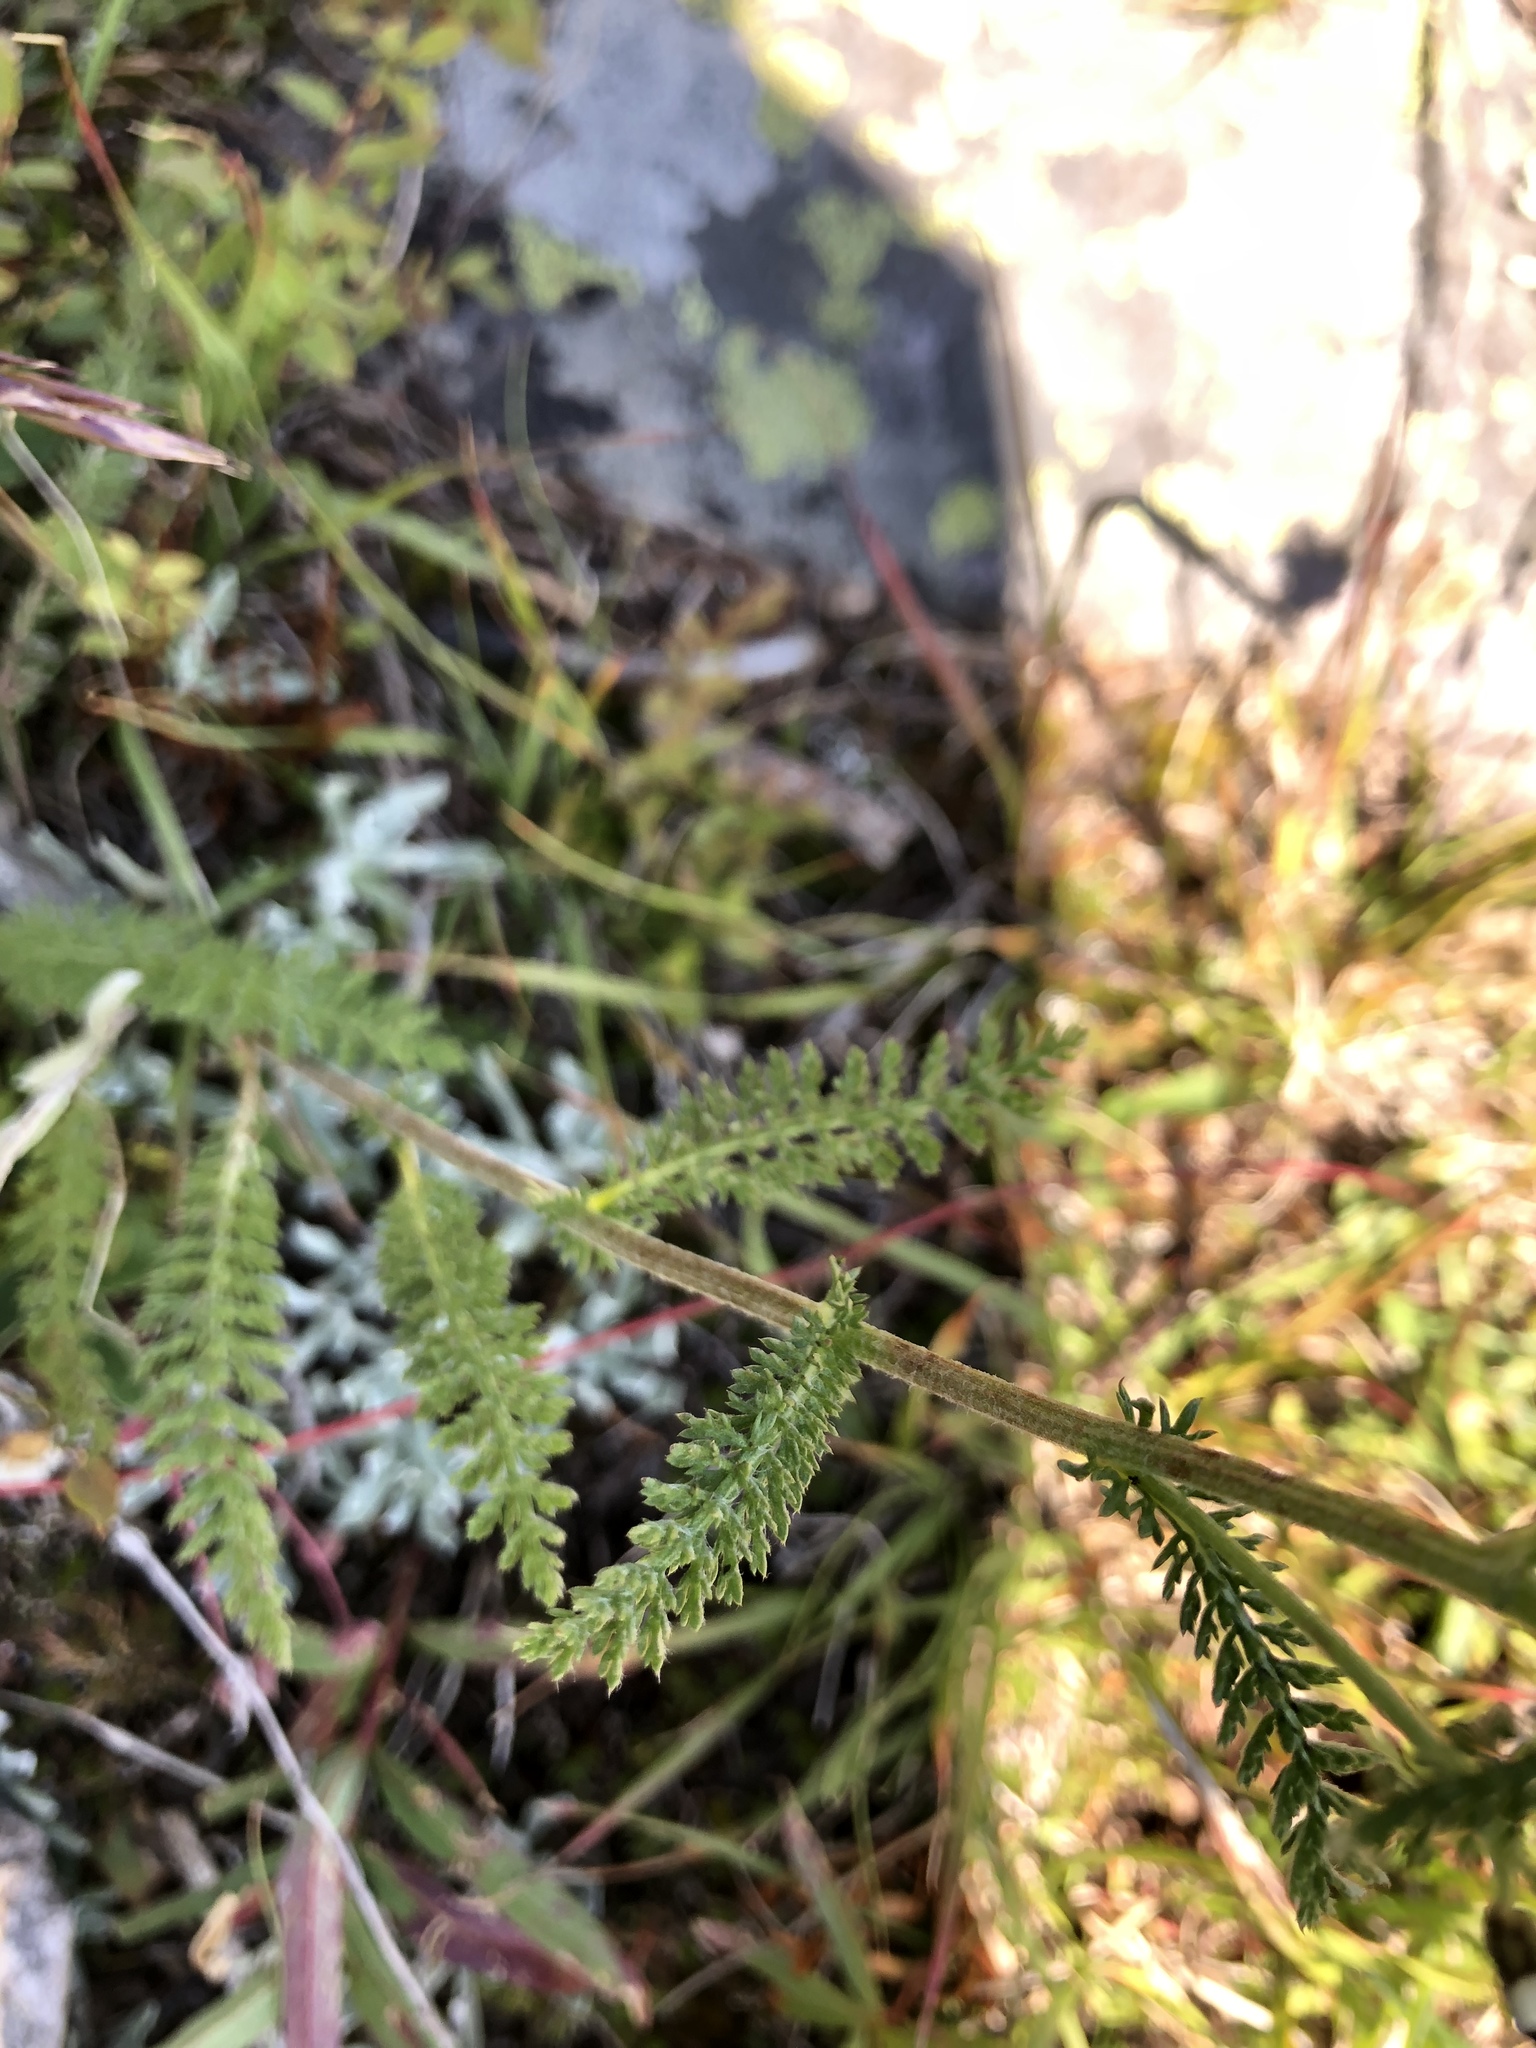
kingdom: Plantae
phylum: Tracheophyta
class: Magnoliopsida
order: Asterales
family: Asteraceae
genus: Achillea
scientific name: Achillea millefolium
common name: Yarrow
